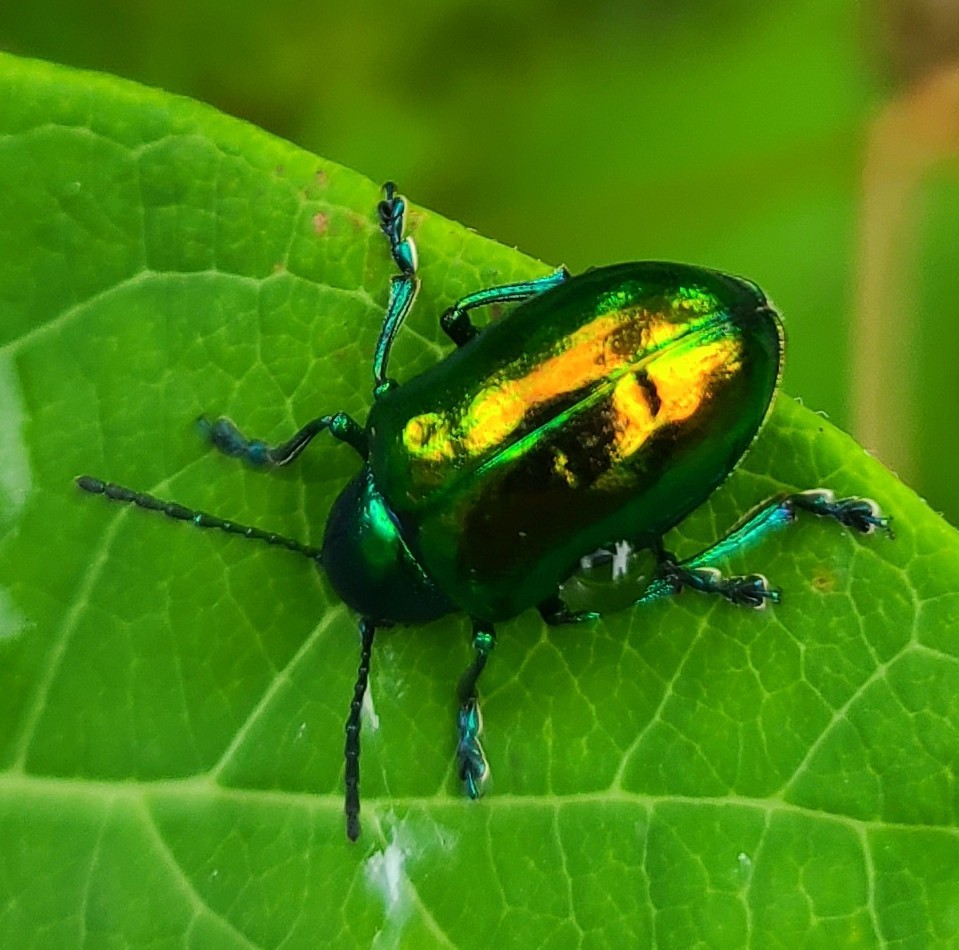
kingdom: Animalia
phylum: Arthropoda
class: Insecta
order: Coleoptera
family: Chrysomelidae
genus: Chrysochus
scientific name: Chrysochus auratus
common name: Dogbane leaf beetle
